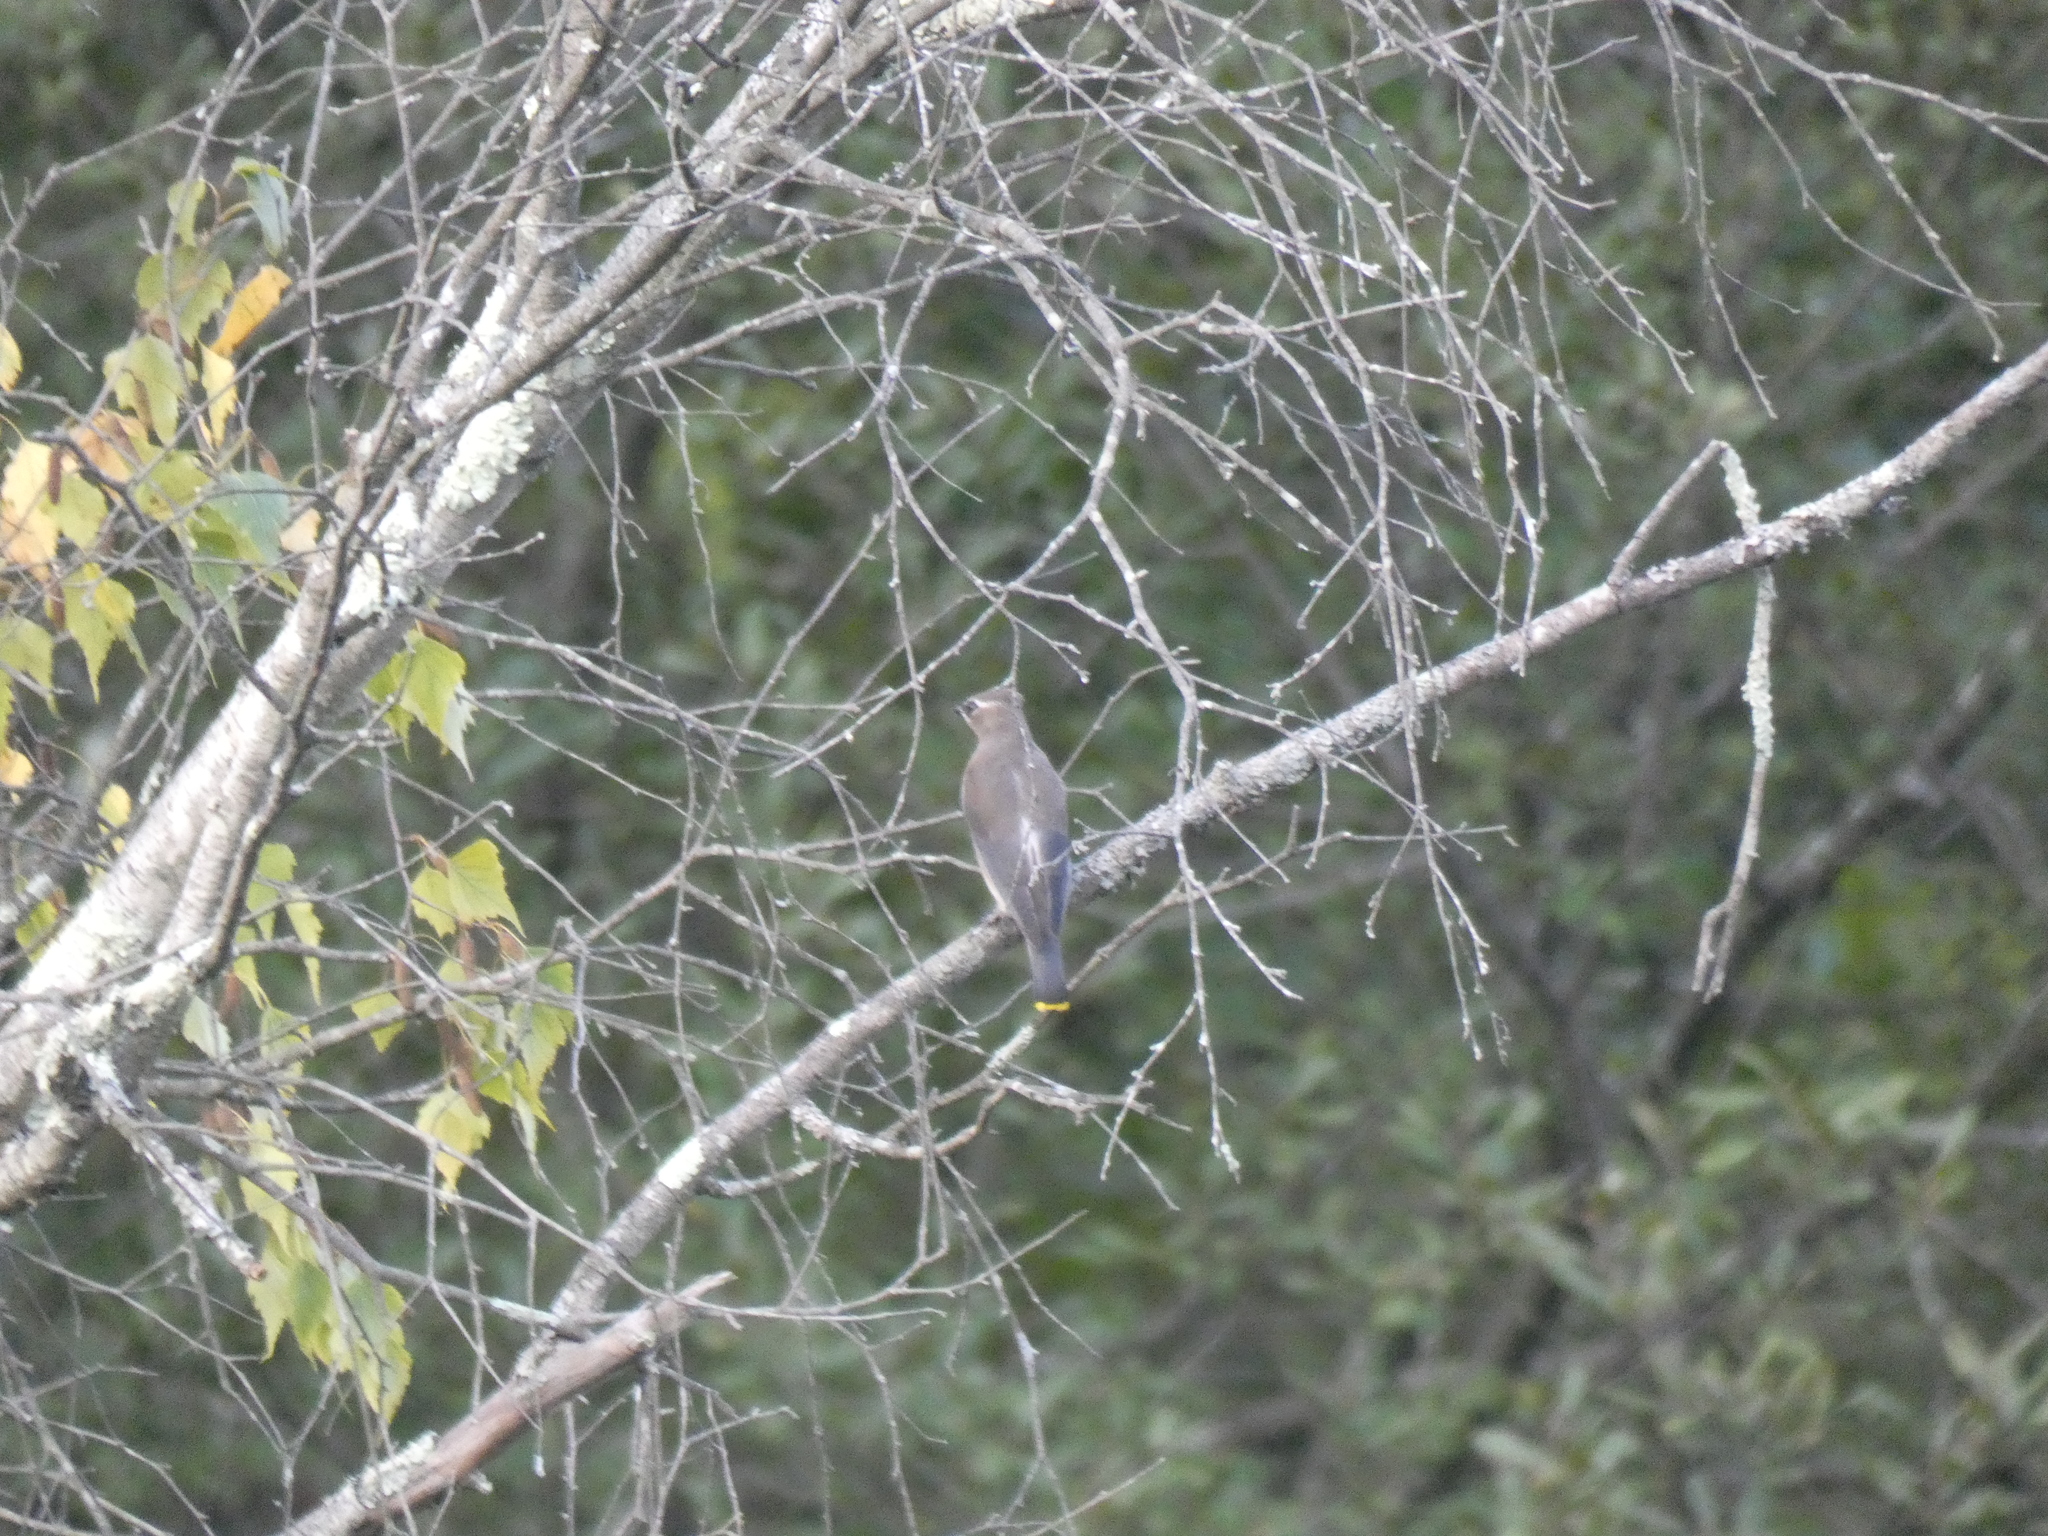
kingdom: Animalia
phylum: Chordata
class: Aves
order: Passeriformes
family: Bombycillidae
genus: Bombycilla
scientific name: Bombycilla cedrorum
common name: Cedar waxwing
